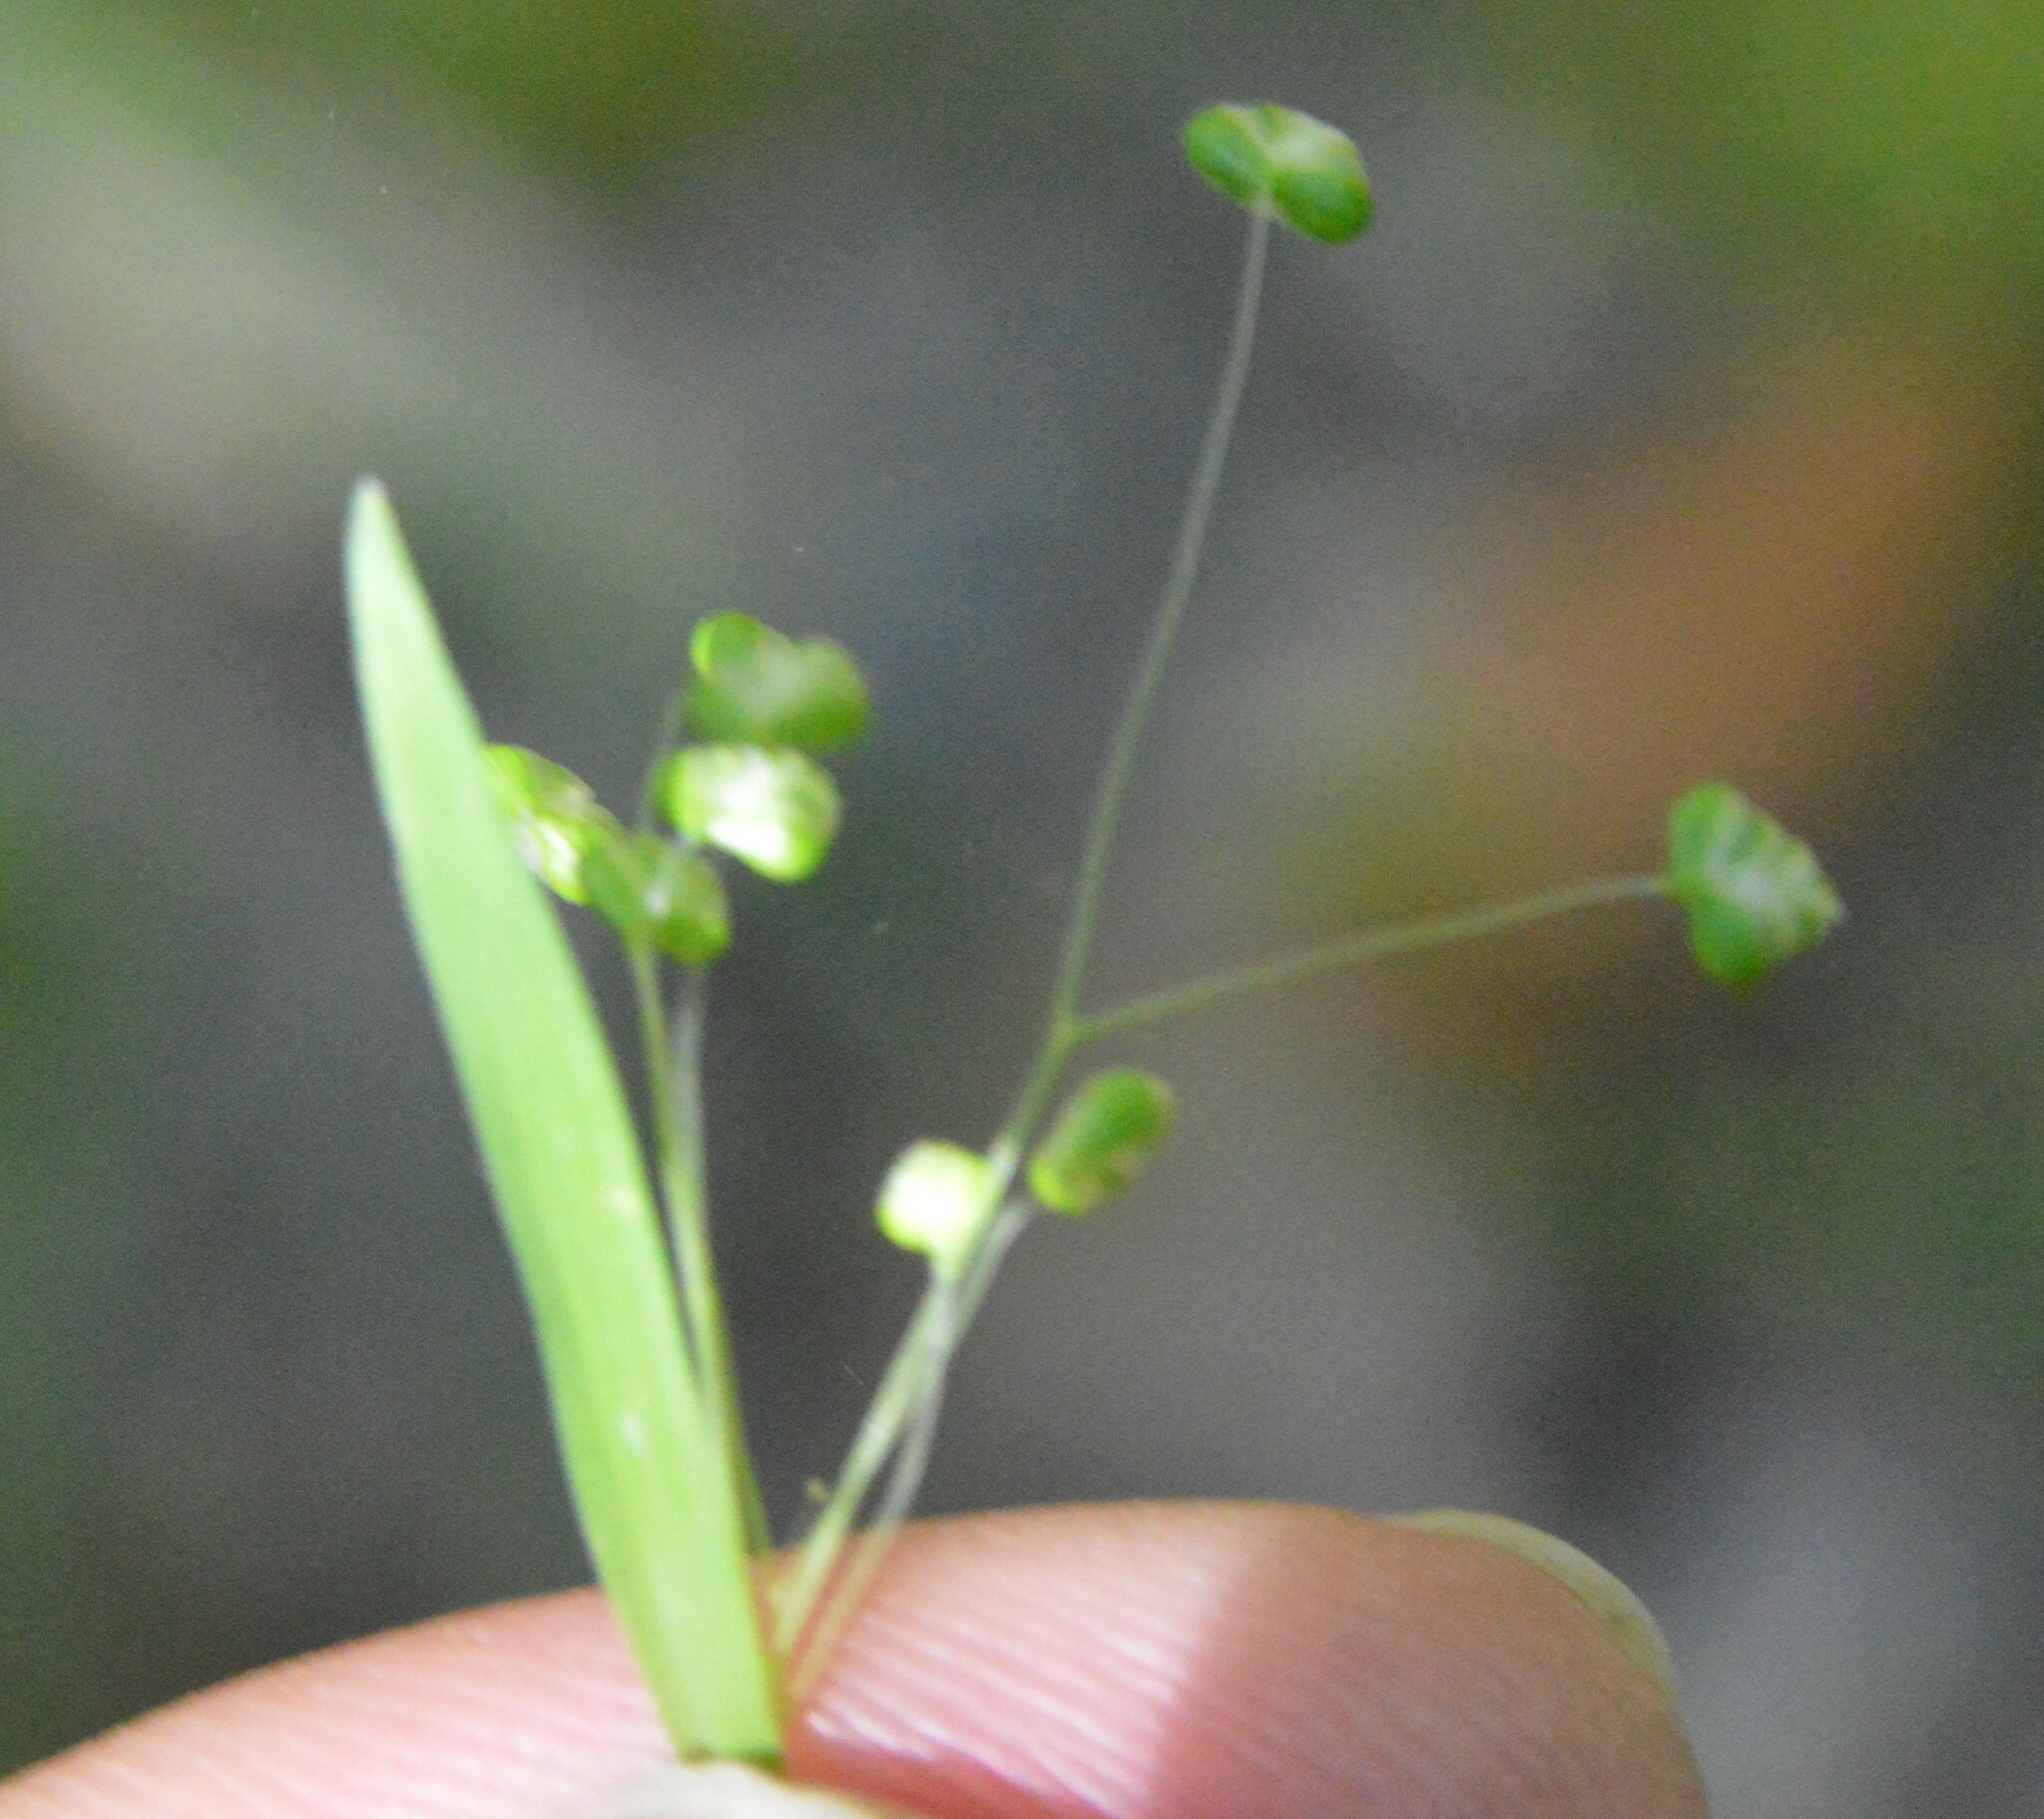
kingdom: Plantae
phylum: Tracheophyta
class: Liliopsida
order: Poales
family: Poaceae
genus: Briza
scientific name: Briza minor
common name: Lesser quaking-grass
